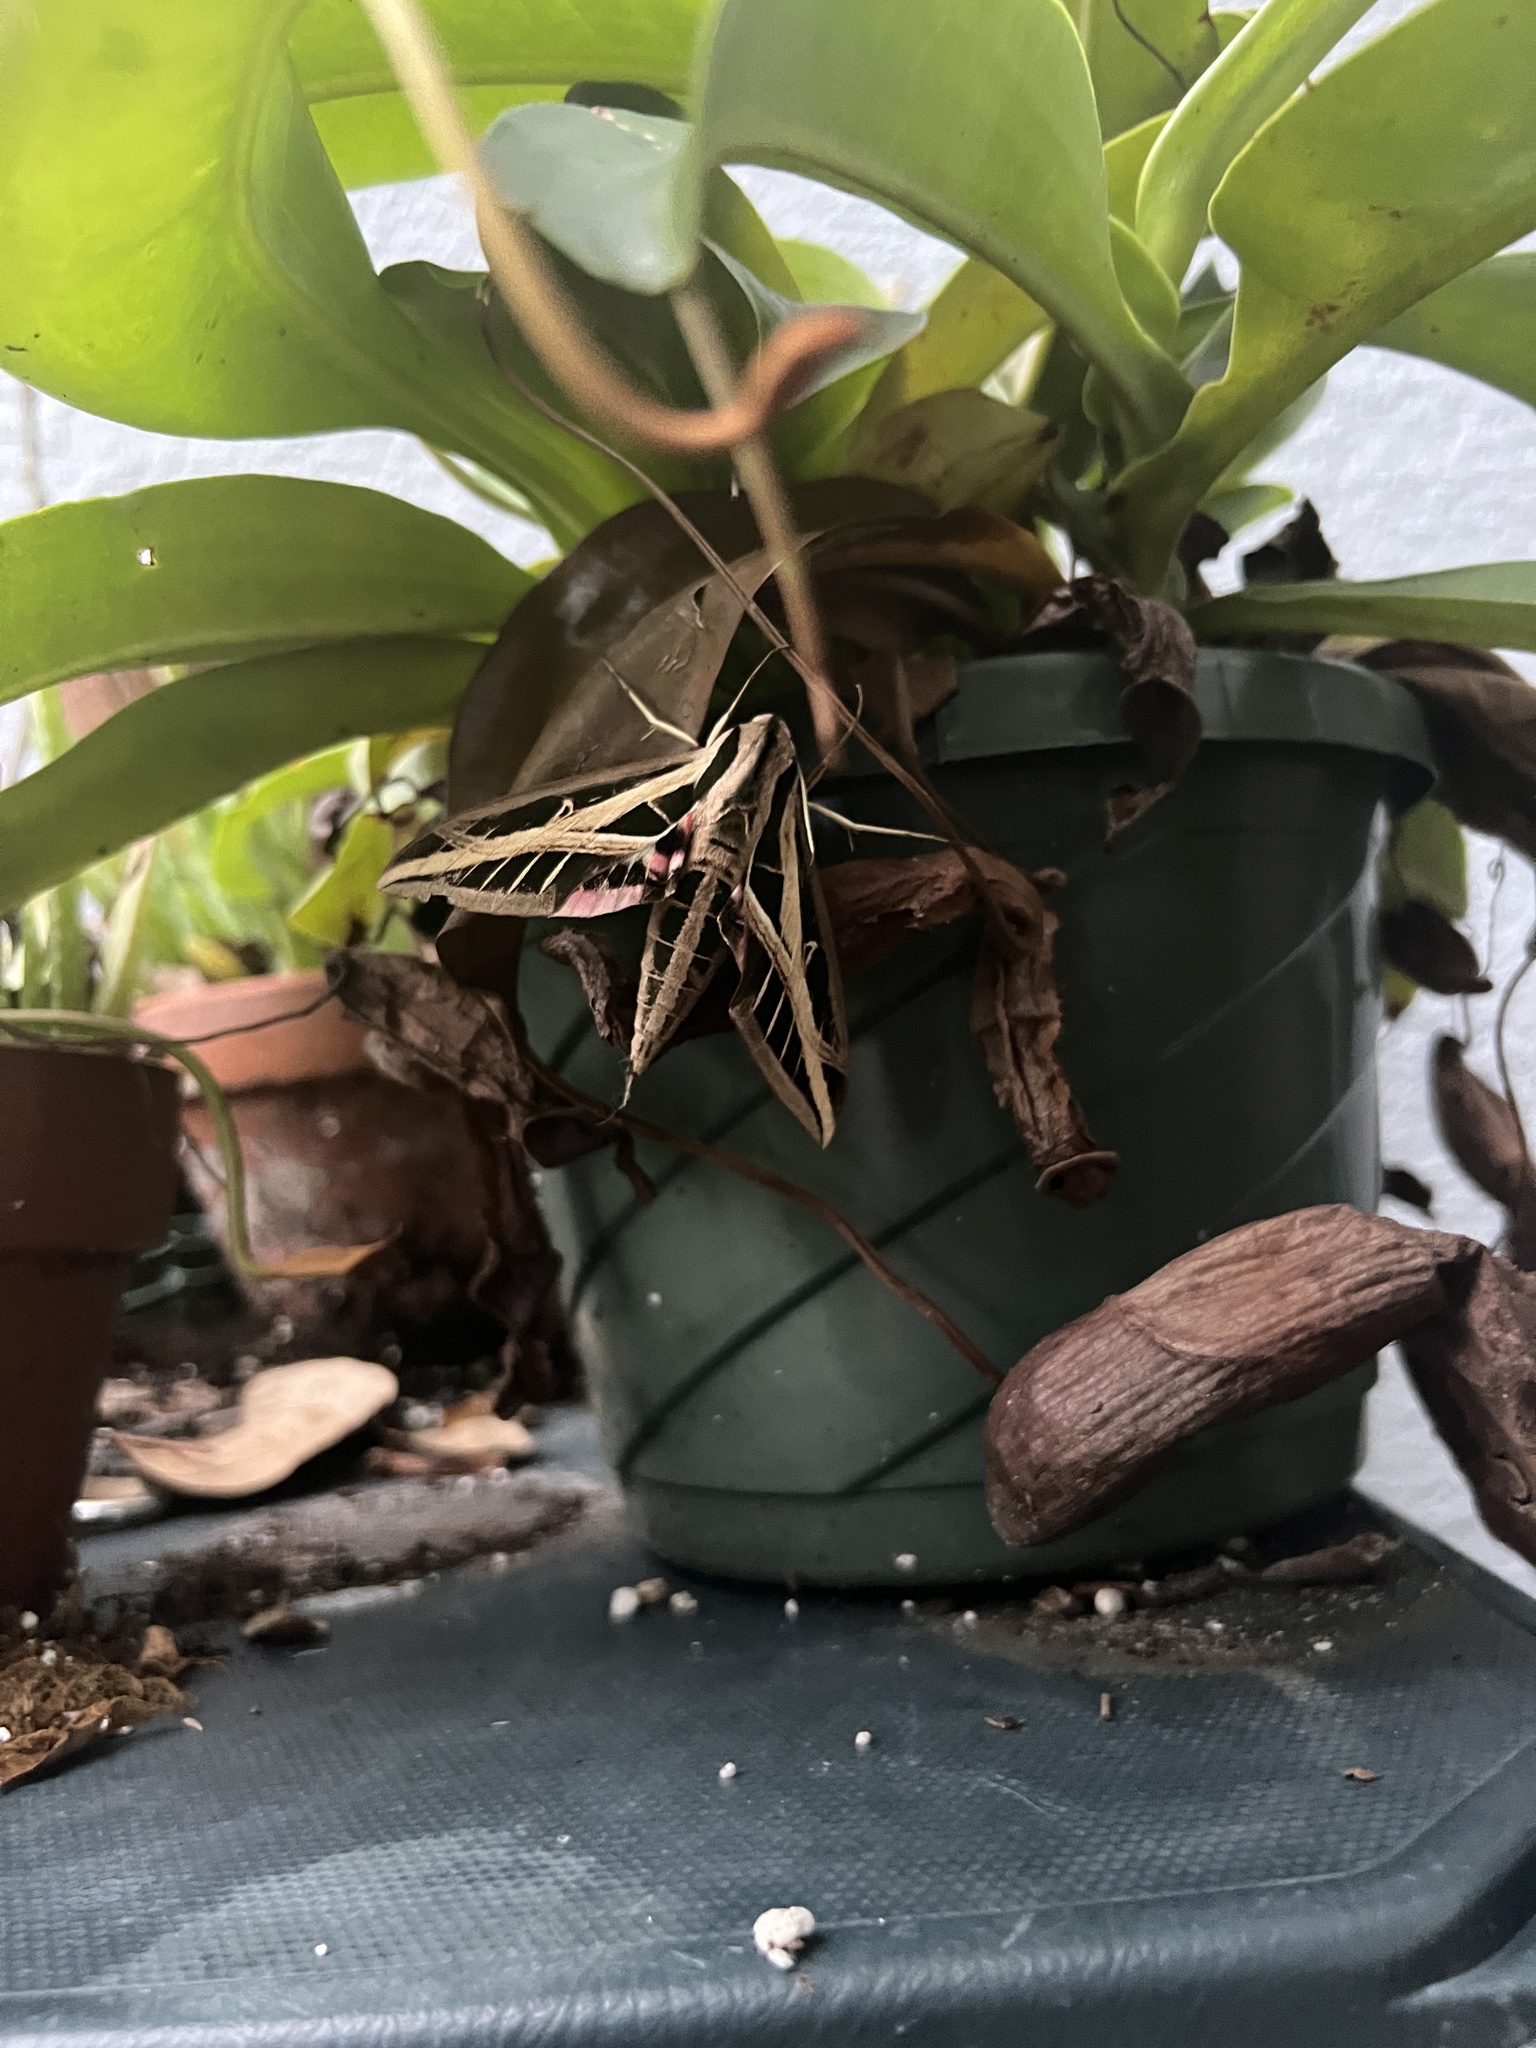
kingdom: Animalia
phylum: Arthropoda
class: Insecta
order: Lepidoptera
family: Sphingidae
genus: Eumorpha
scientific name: Eumorpha fasciatus
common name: Banded sphinx
